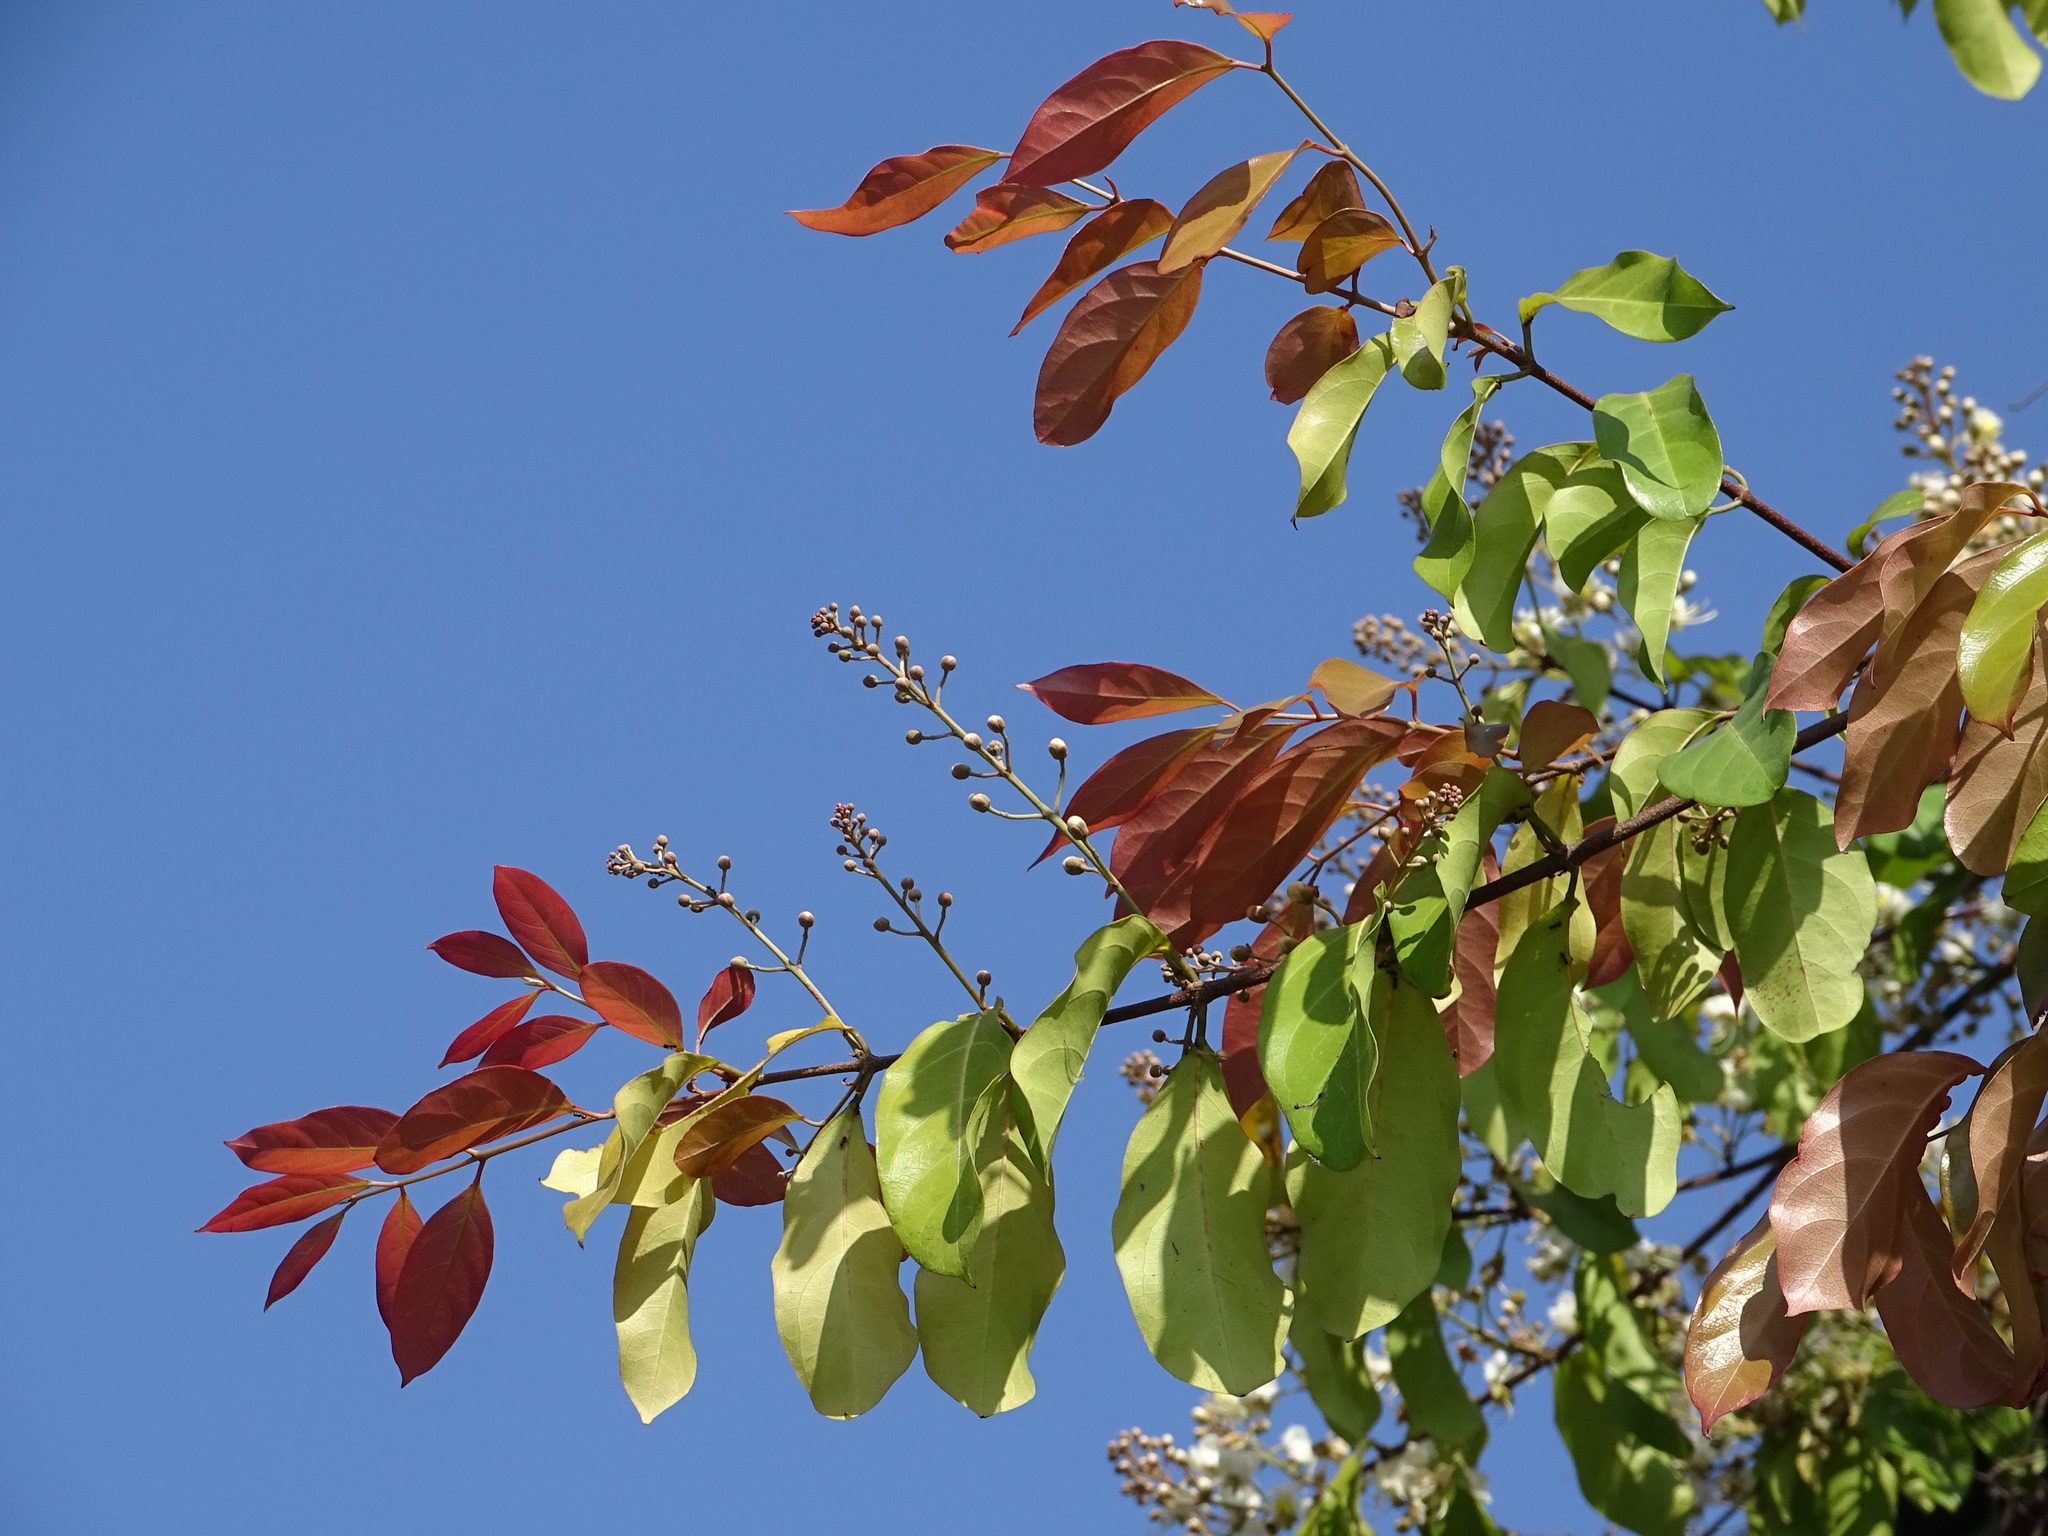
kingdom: Plantae
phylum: Tracheophyta
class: Magnoliopsida
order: Malpighiales
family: Malpighiaceae
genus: Hiptage
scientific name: Hiptage benghalensis
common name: Hiptage
